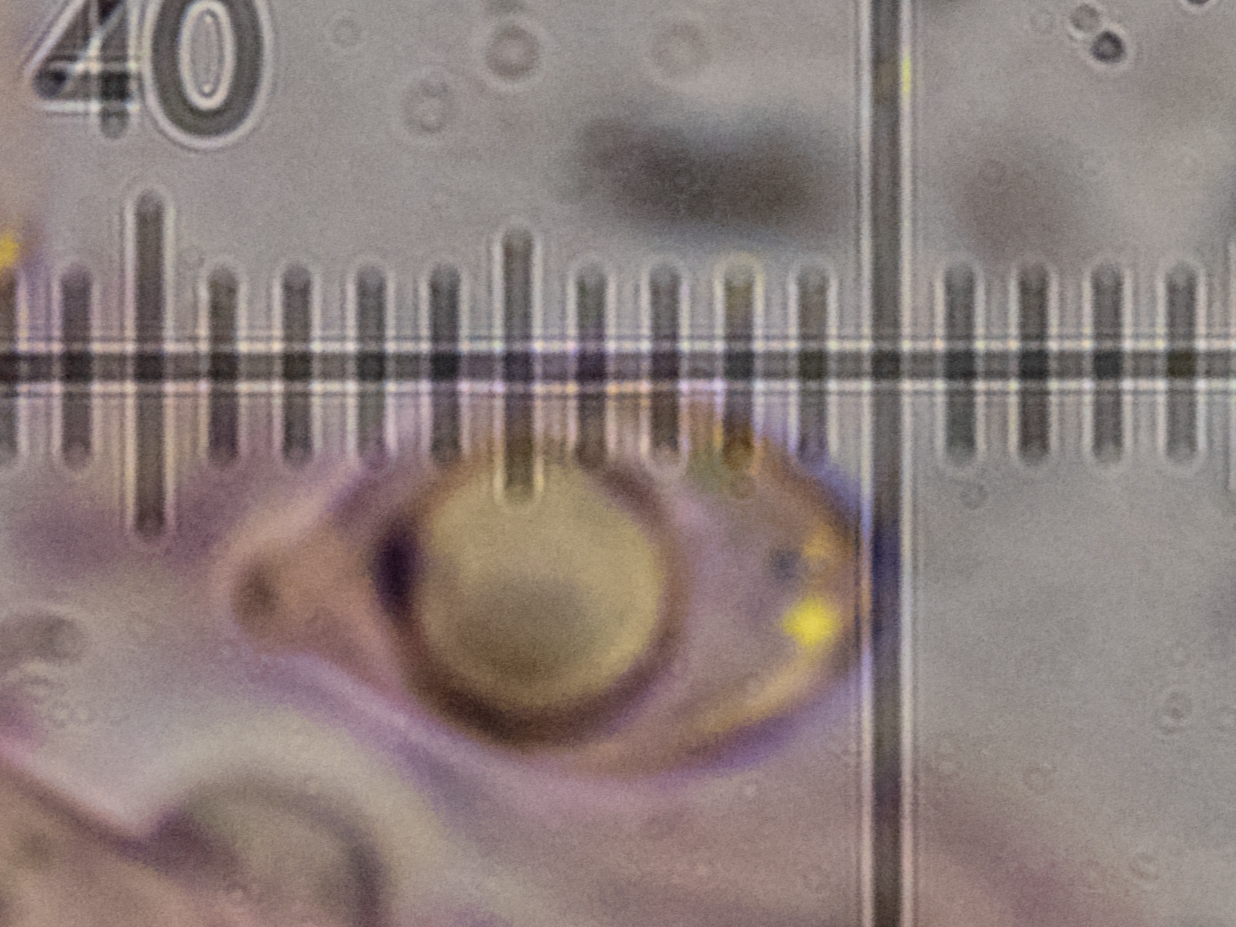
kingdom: Fungi
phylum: Basidiomycota
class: Agaricomycetes
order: Agaricales
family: Marasmiaceae
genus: Marasmius
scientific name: Marasmius oreades
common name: Fairy ring champignon
